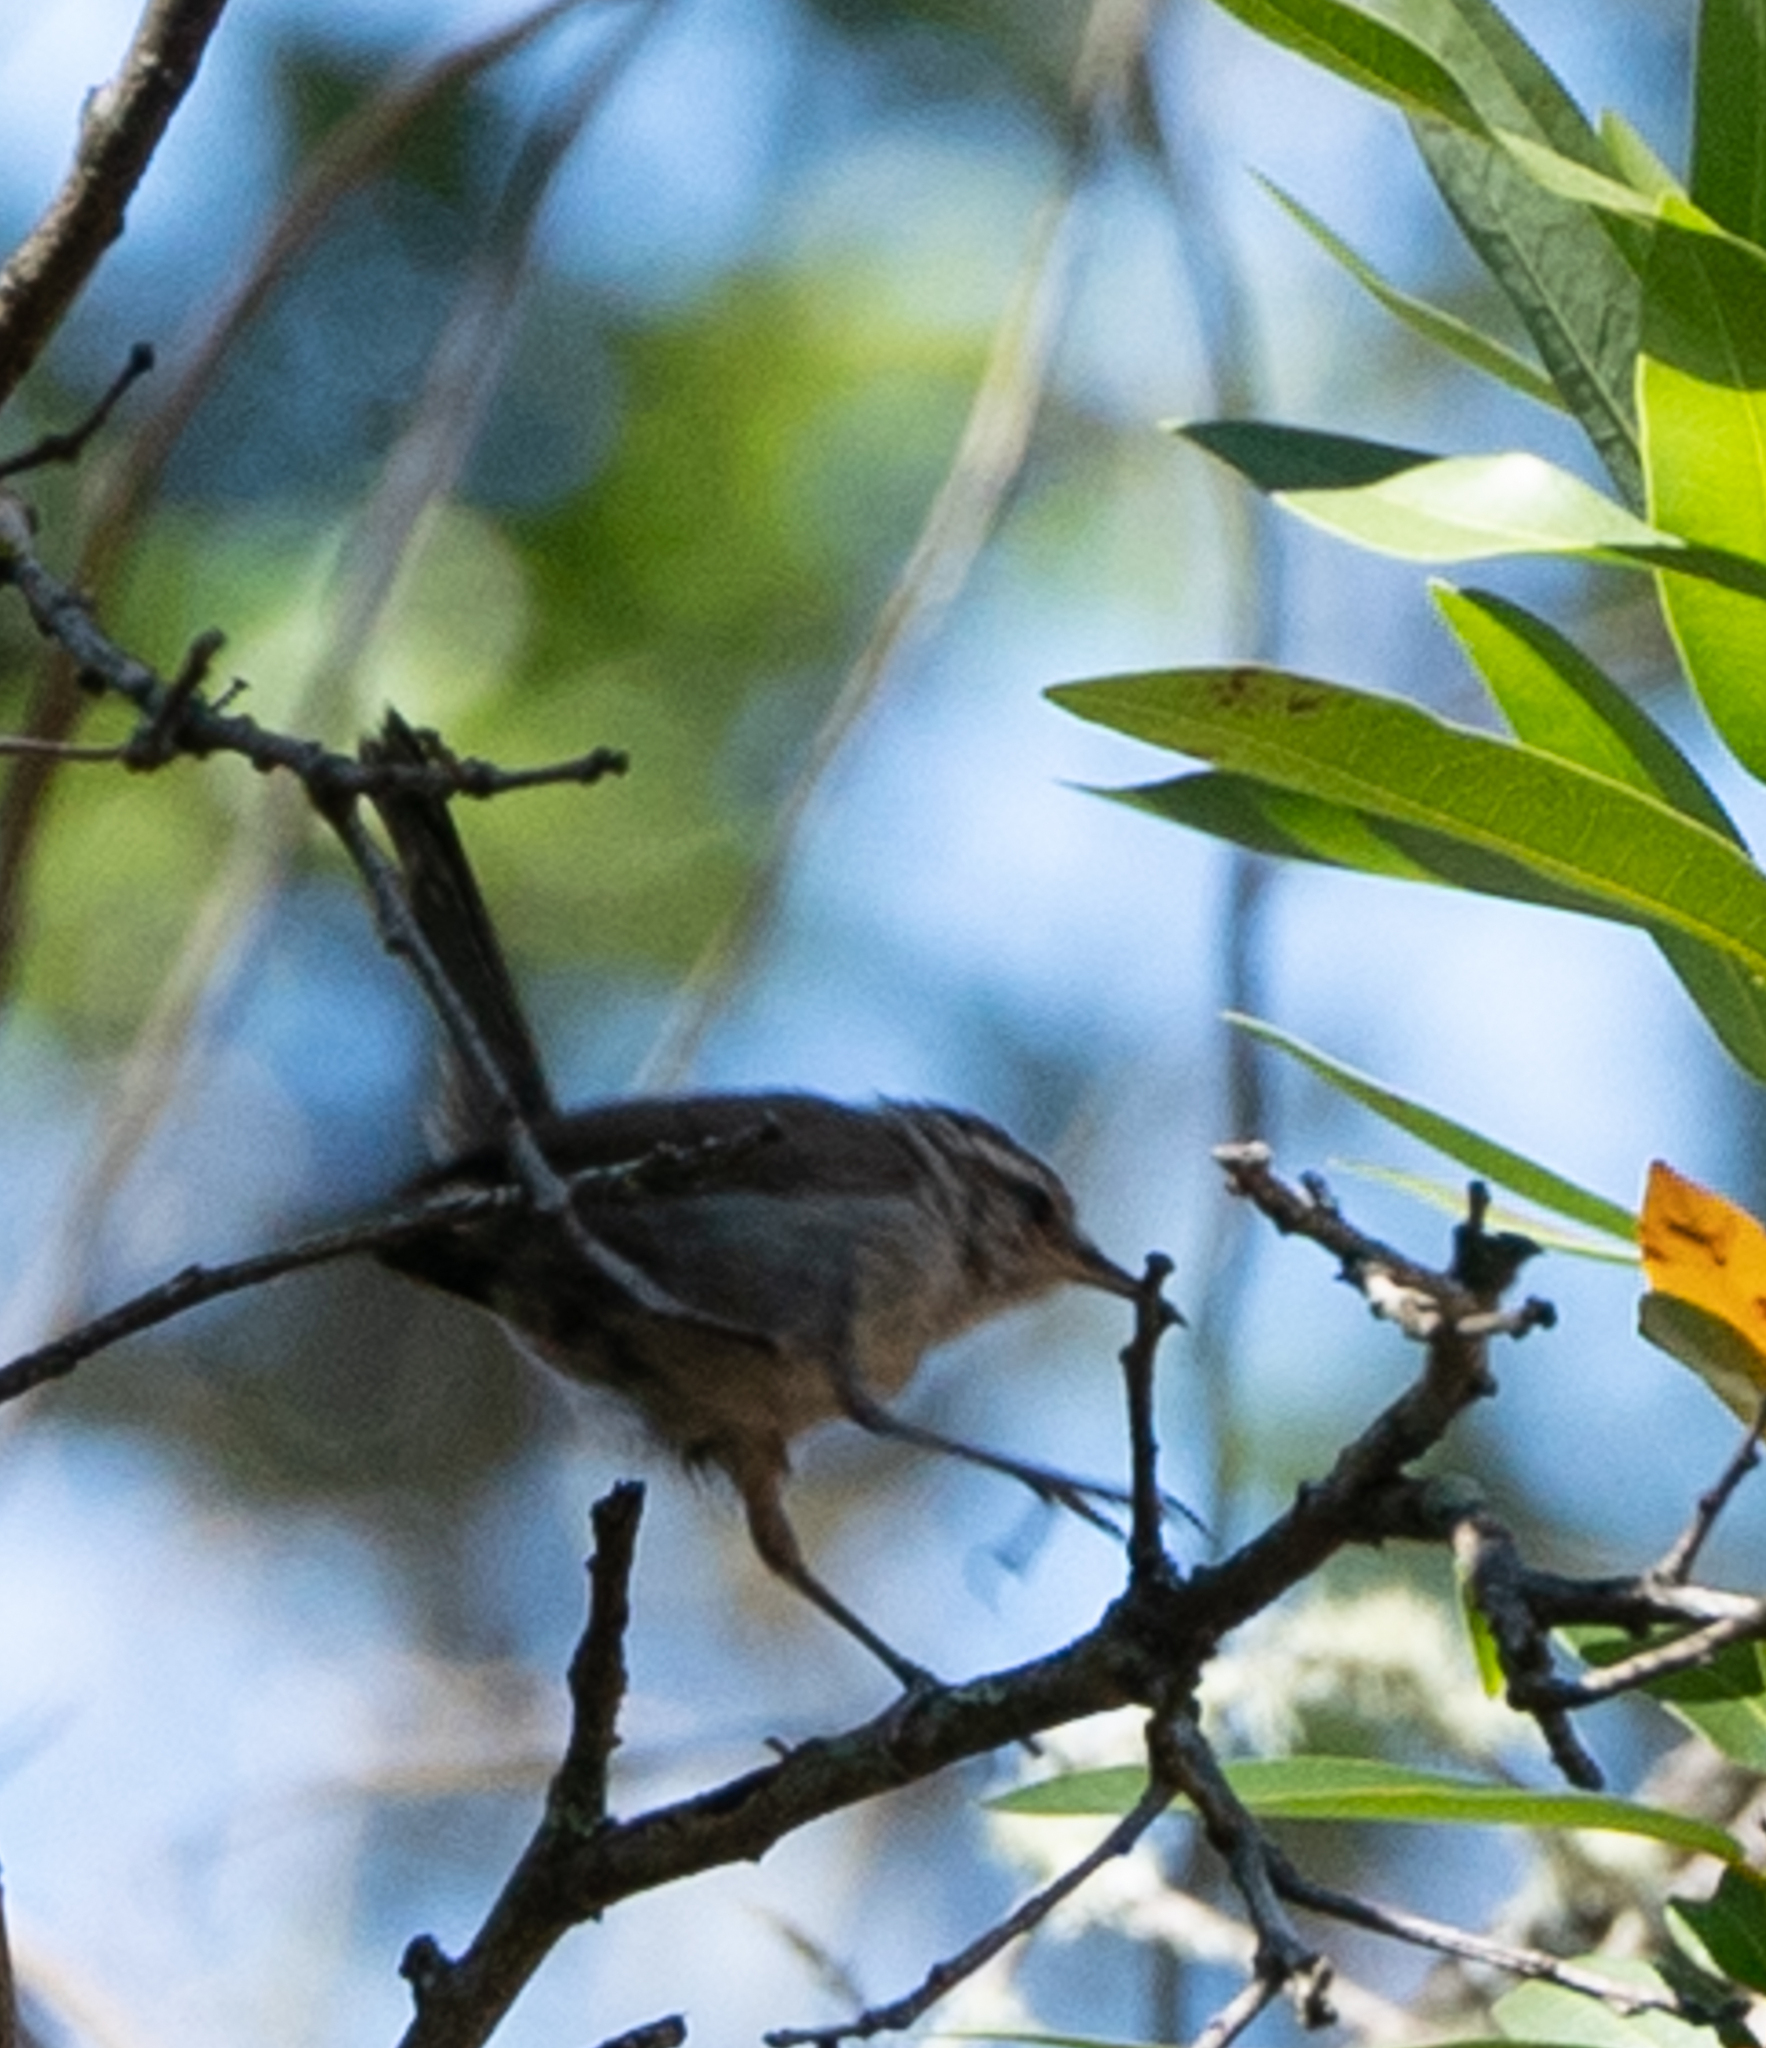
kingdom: Animalia
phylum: Chordata
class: Aves
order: Passeriformes
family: Troglodytidae
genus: Thryomanes
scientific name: Thryomanes bewickii
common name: Bewick's wren
